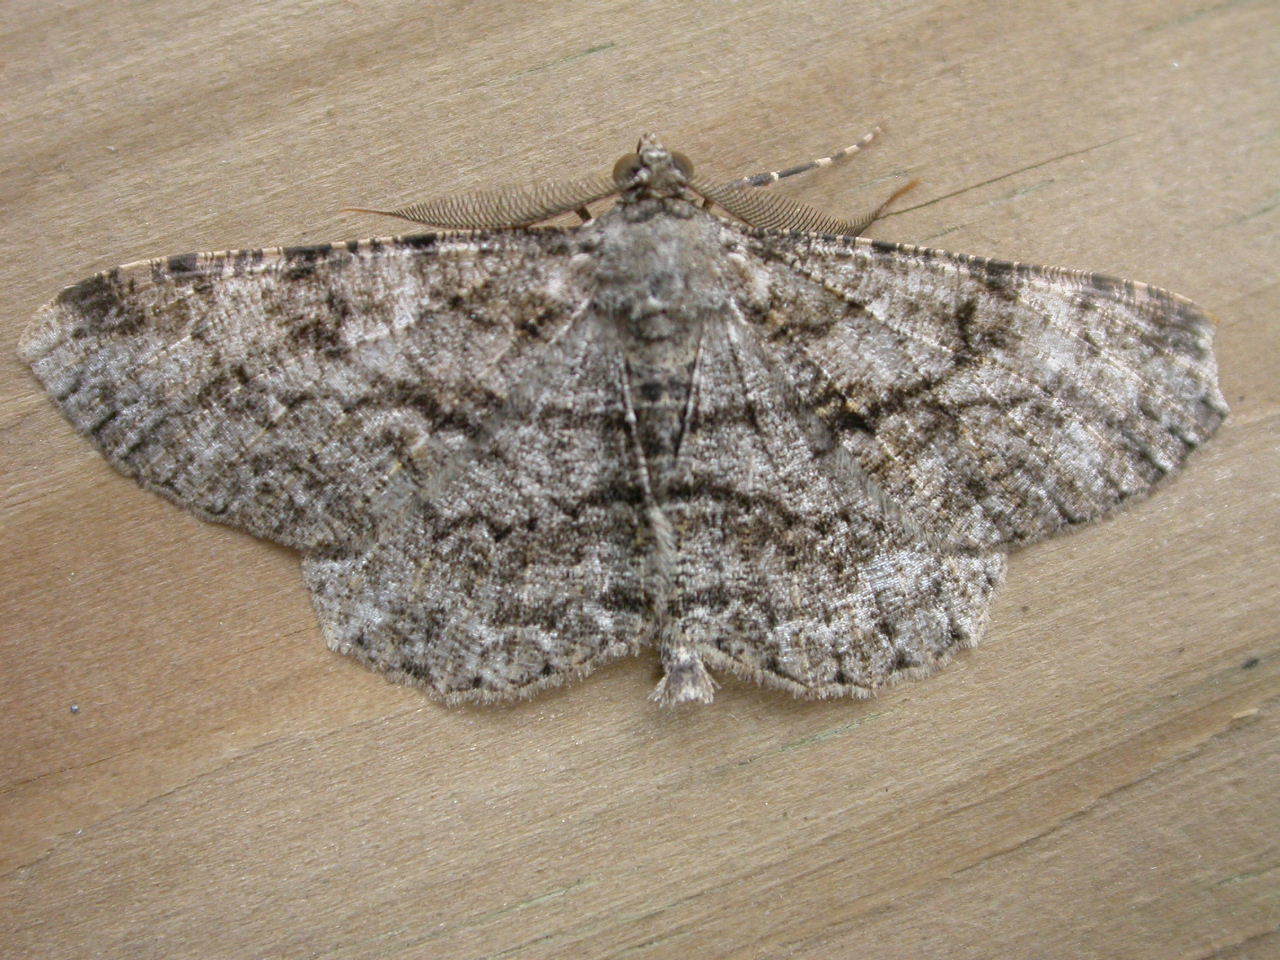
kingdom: Animalia
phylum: Arthropoda
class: Insecta
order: Lepidoptera
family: Geometridae
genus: Peribatodes
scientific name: Peribatodes rhomboidaria
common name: Willow beauty
